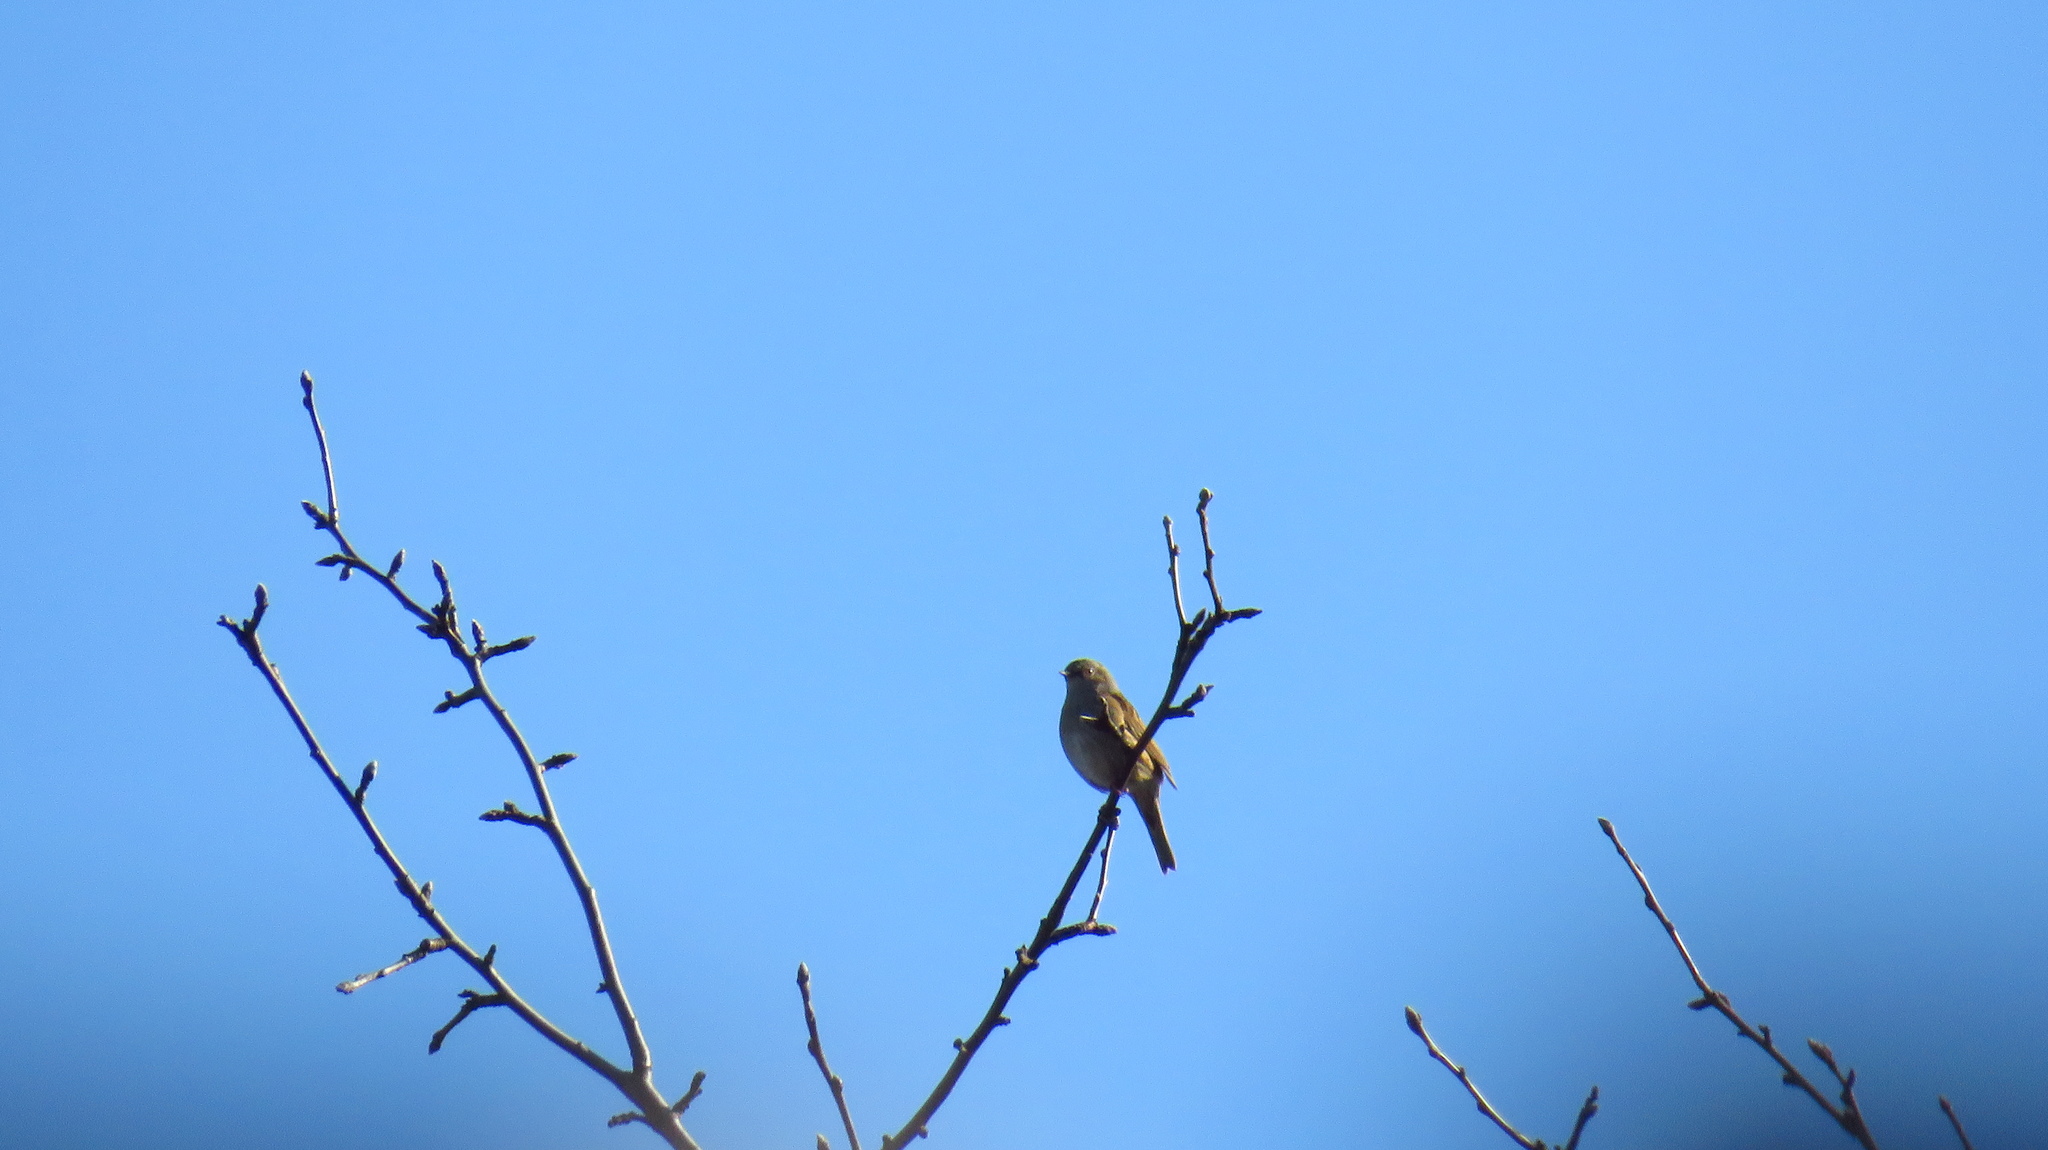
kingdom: Animalia
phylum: Chordata
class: Aves
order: Passeriformes
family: Prunellidae
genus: Prunella
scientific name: Prunella modularis
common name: Dunnock
